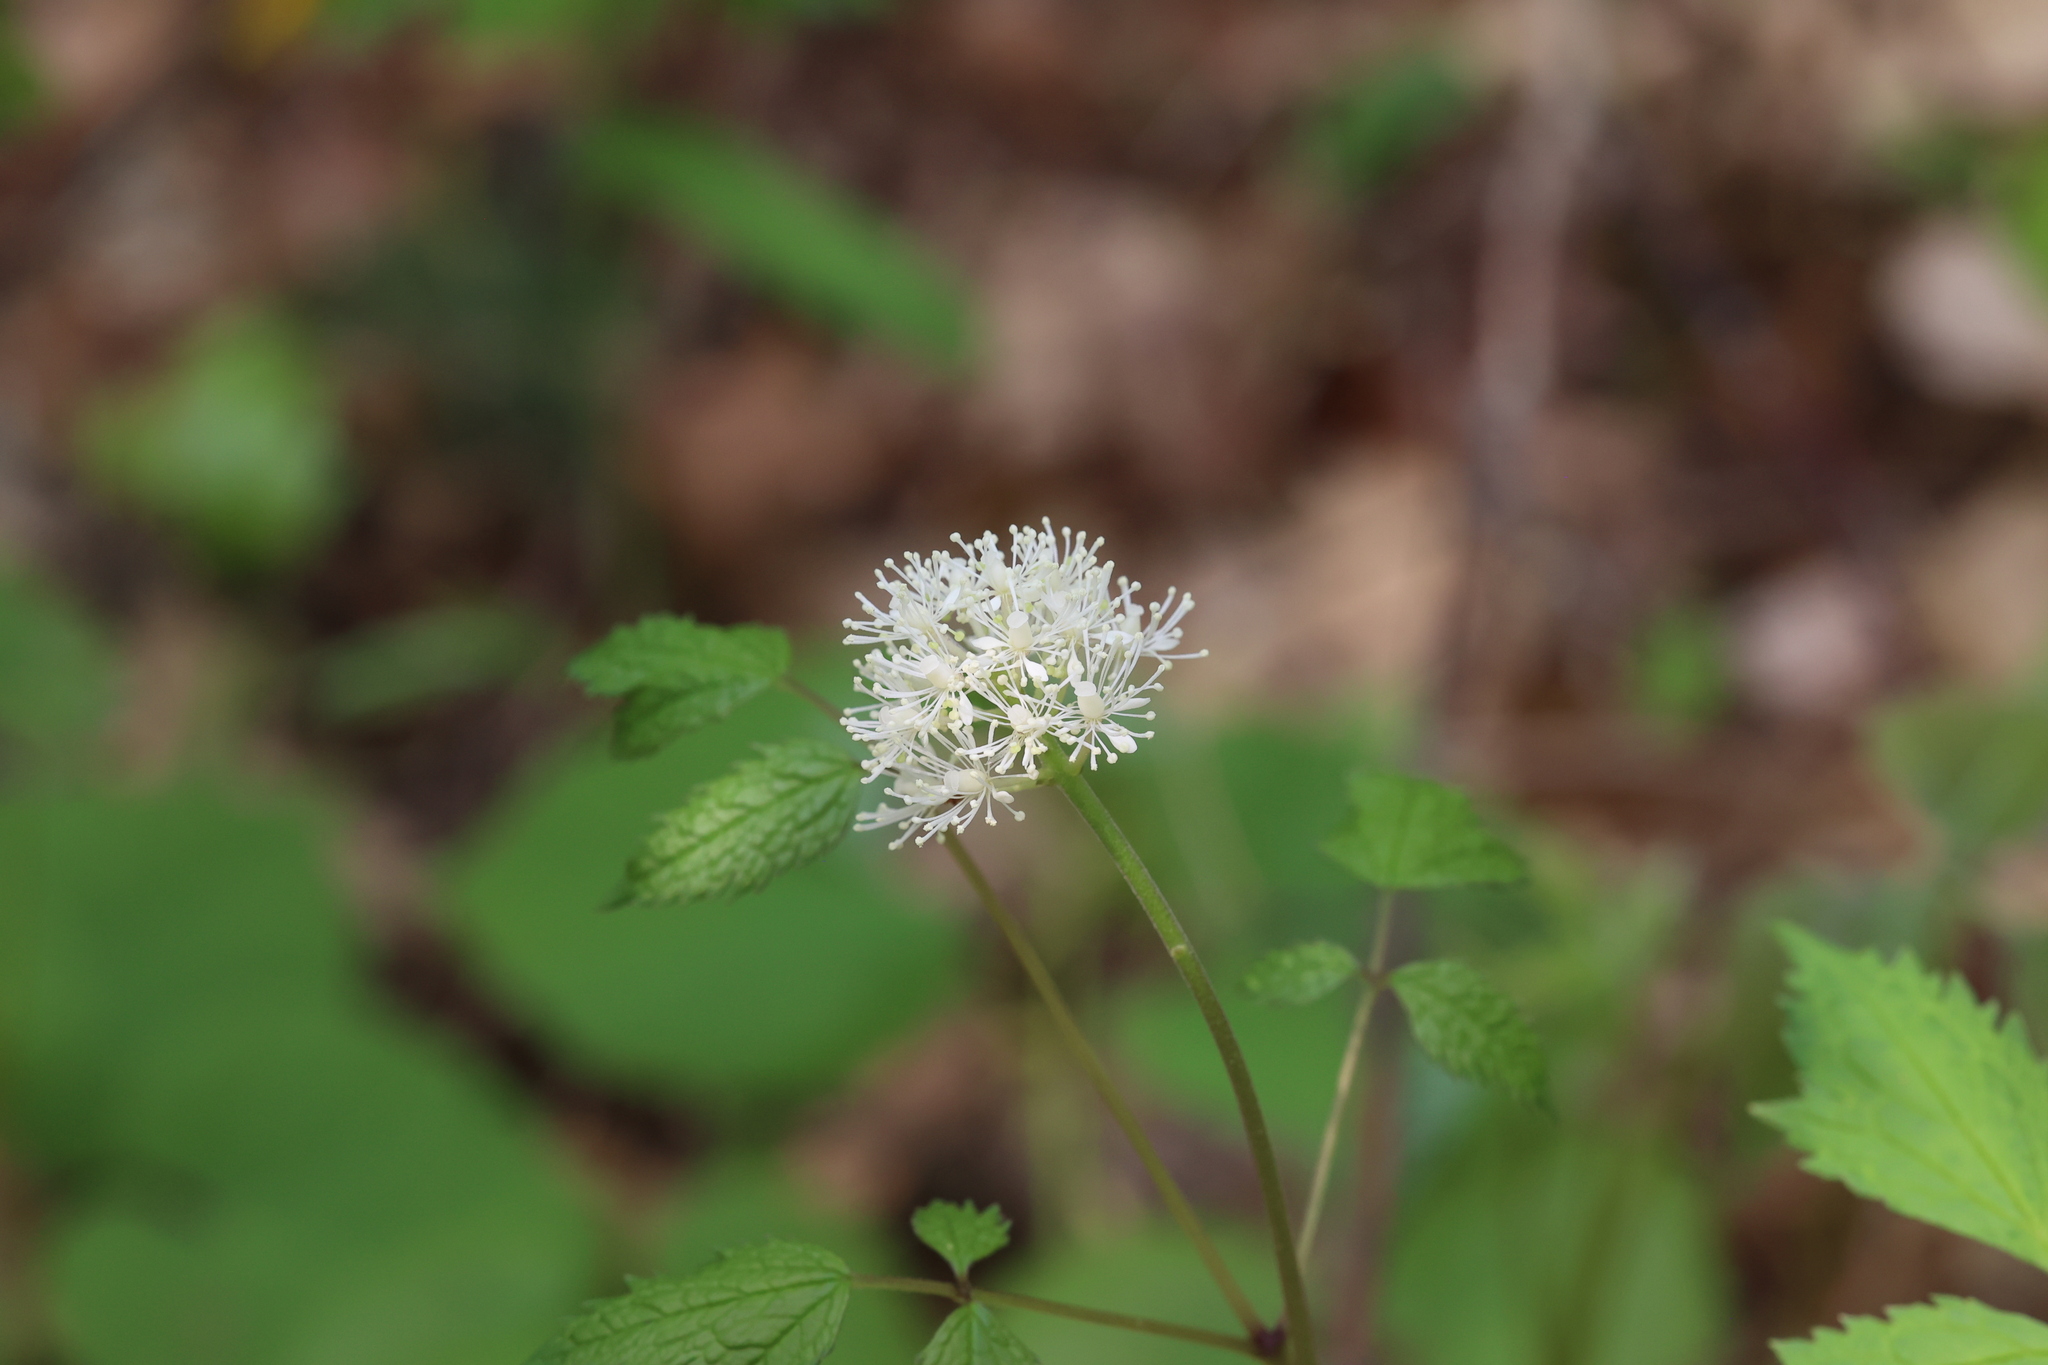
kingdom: Plantae
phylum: Tracheophyta
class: Magnoliopsida
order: Ranunculales
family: Ranunculaceae
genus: Actaea
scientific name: Actaea rubra
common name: Red baneberry
